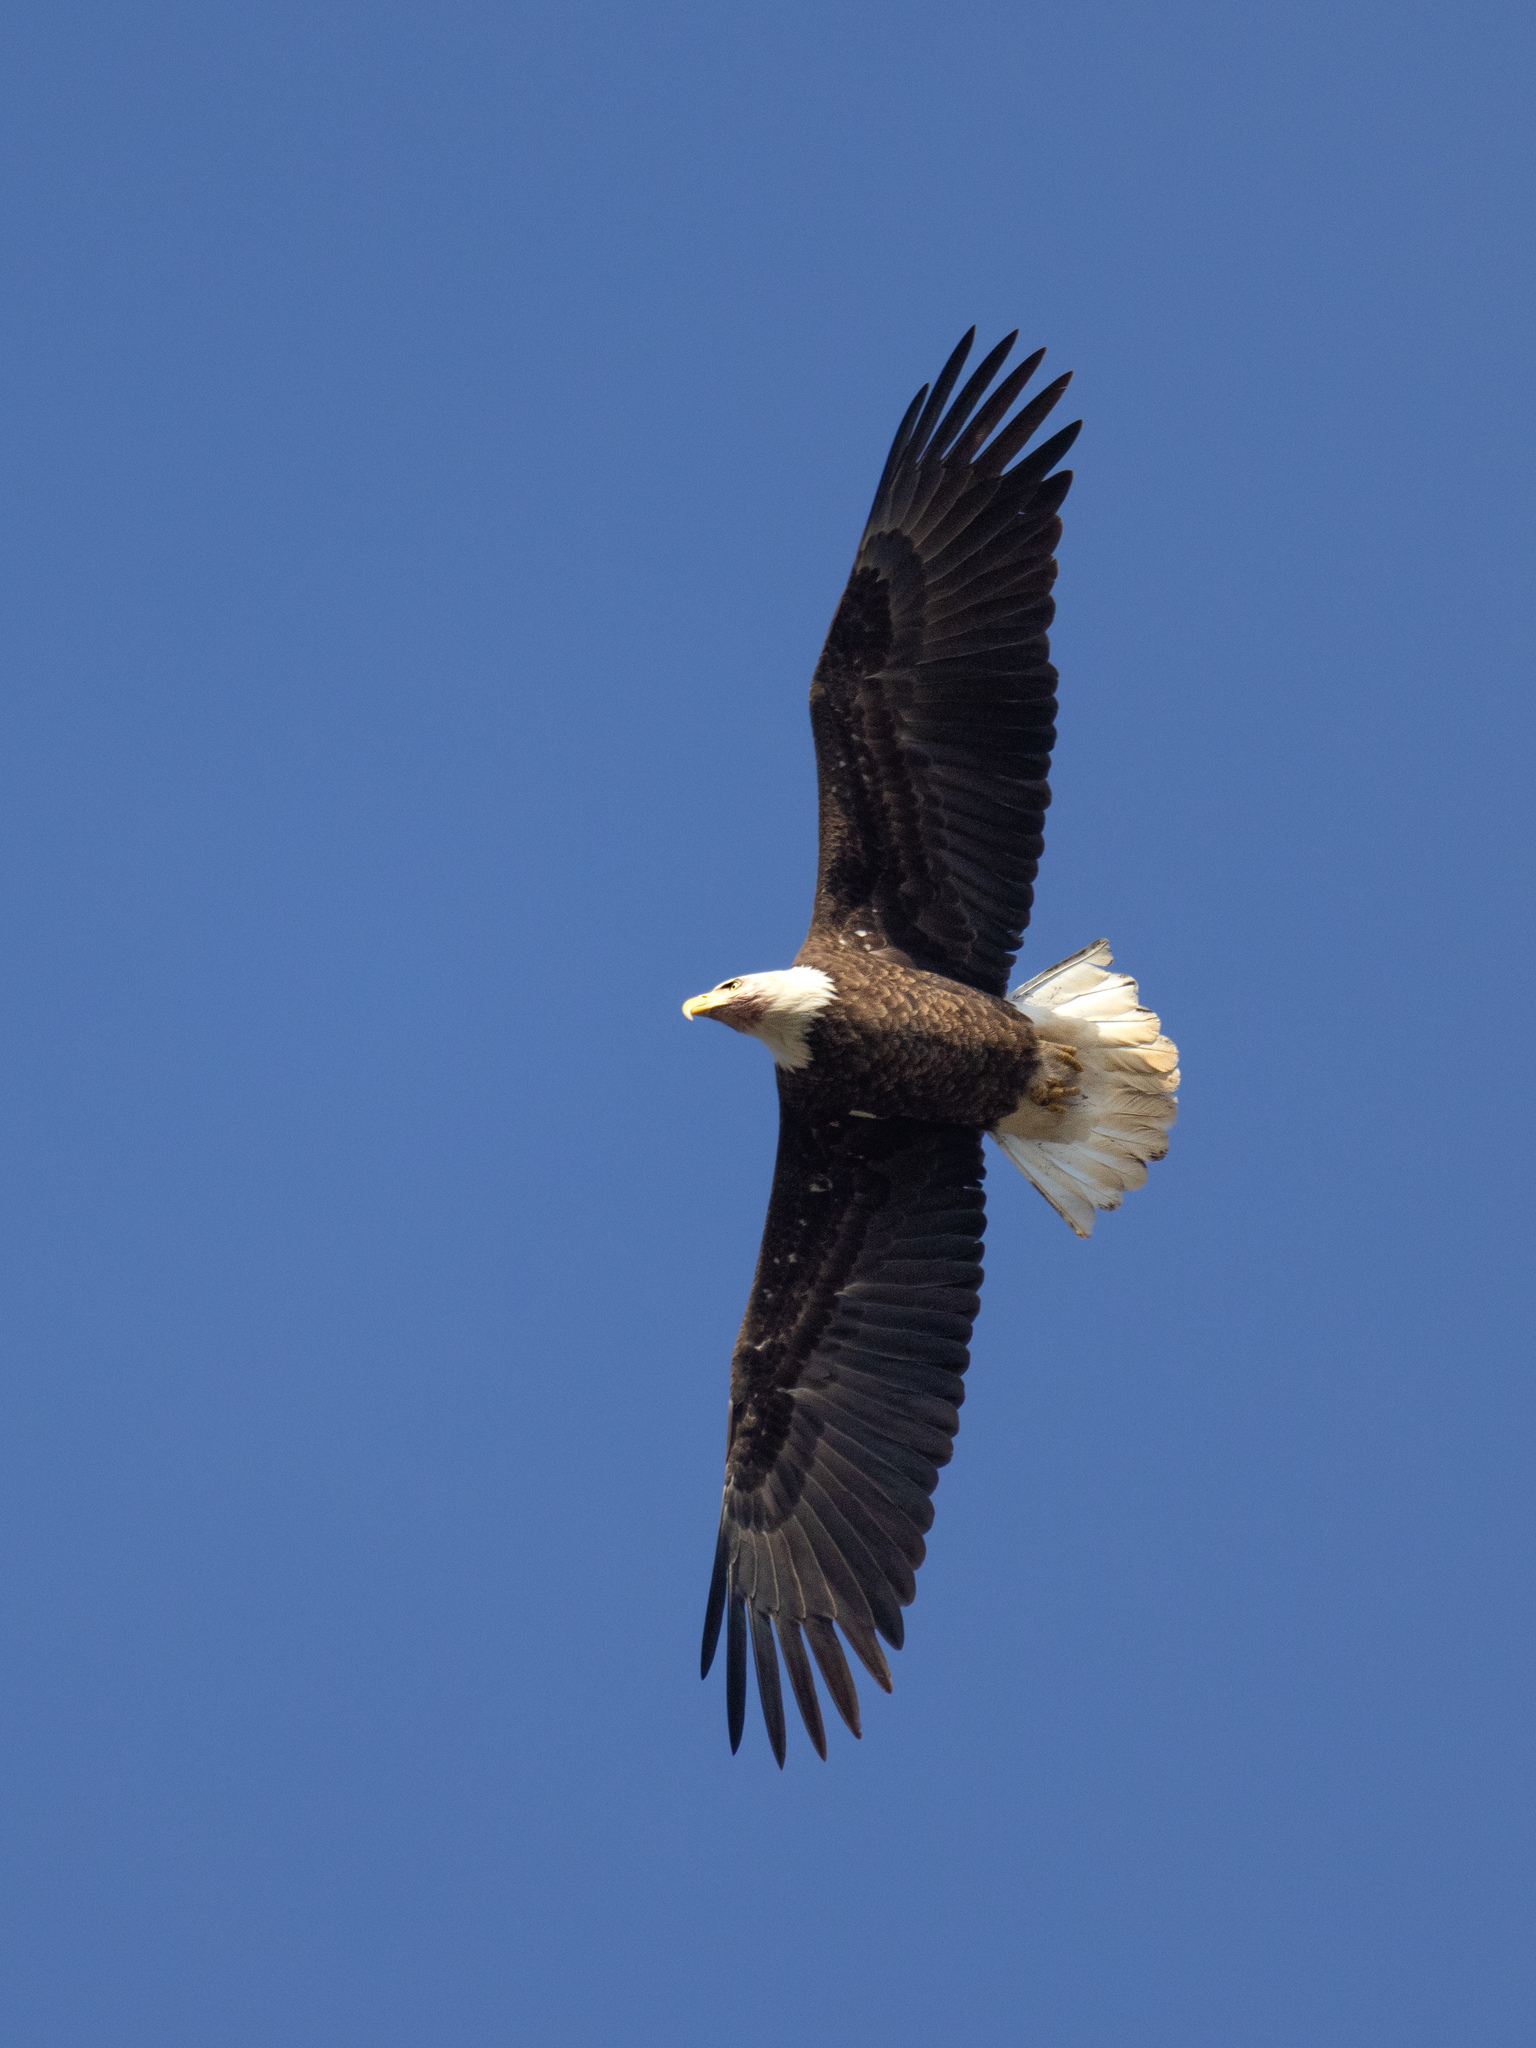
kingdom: Animalia
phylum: Chordata
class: Aves
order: Accipitriformes
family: Accipitridae
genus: Haliaeetus
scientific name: Haliaeetus leucocephalus
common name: Bald eagle
